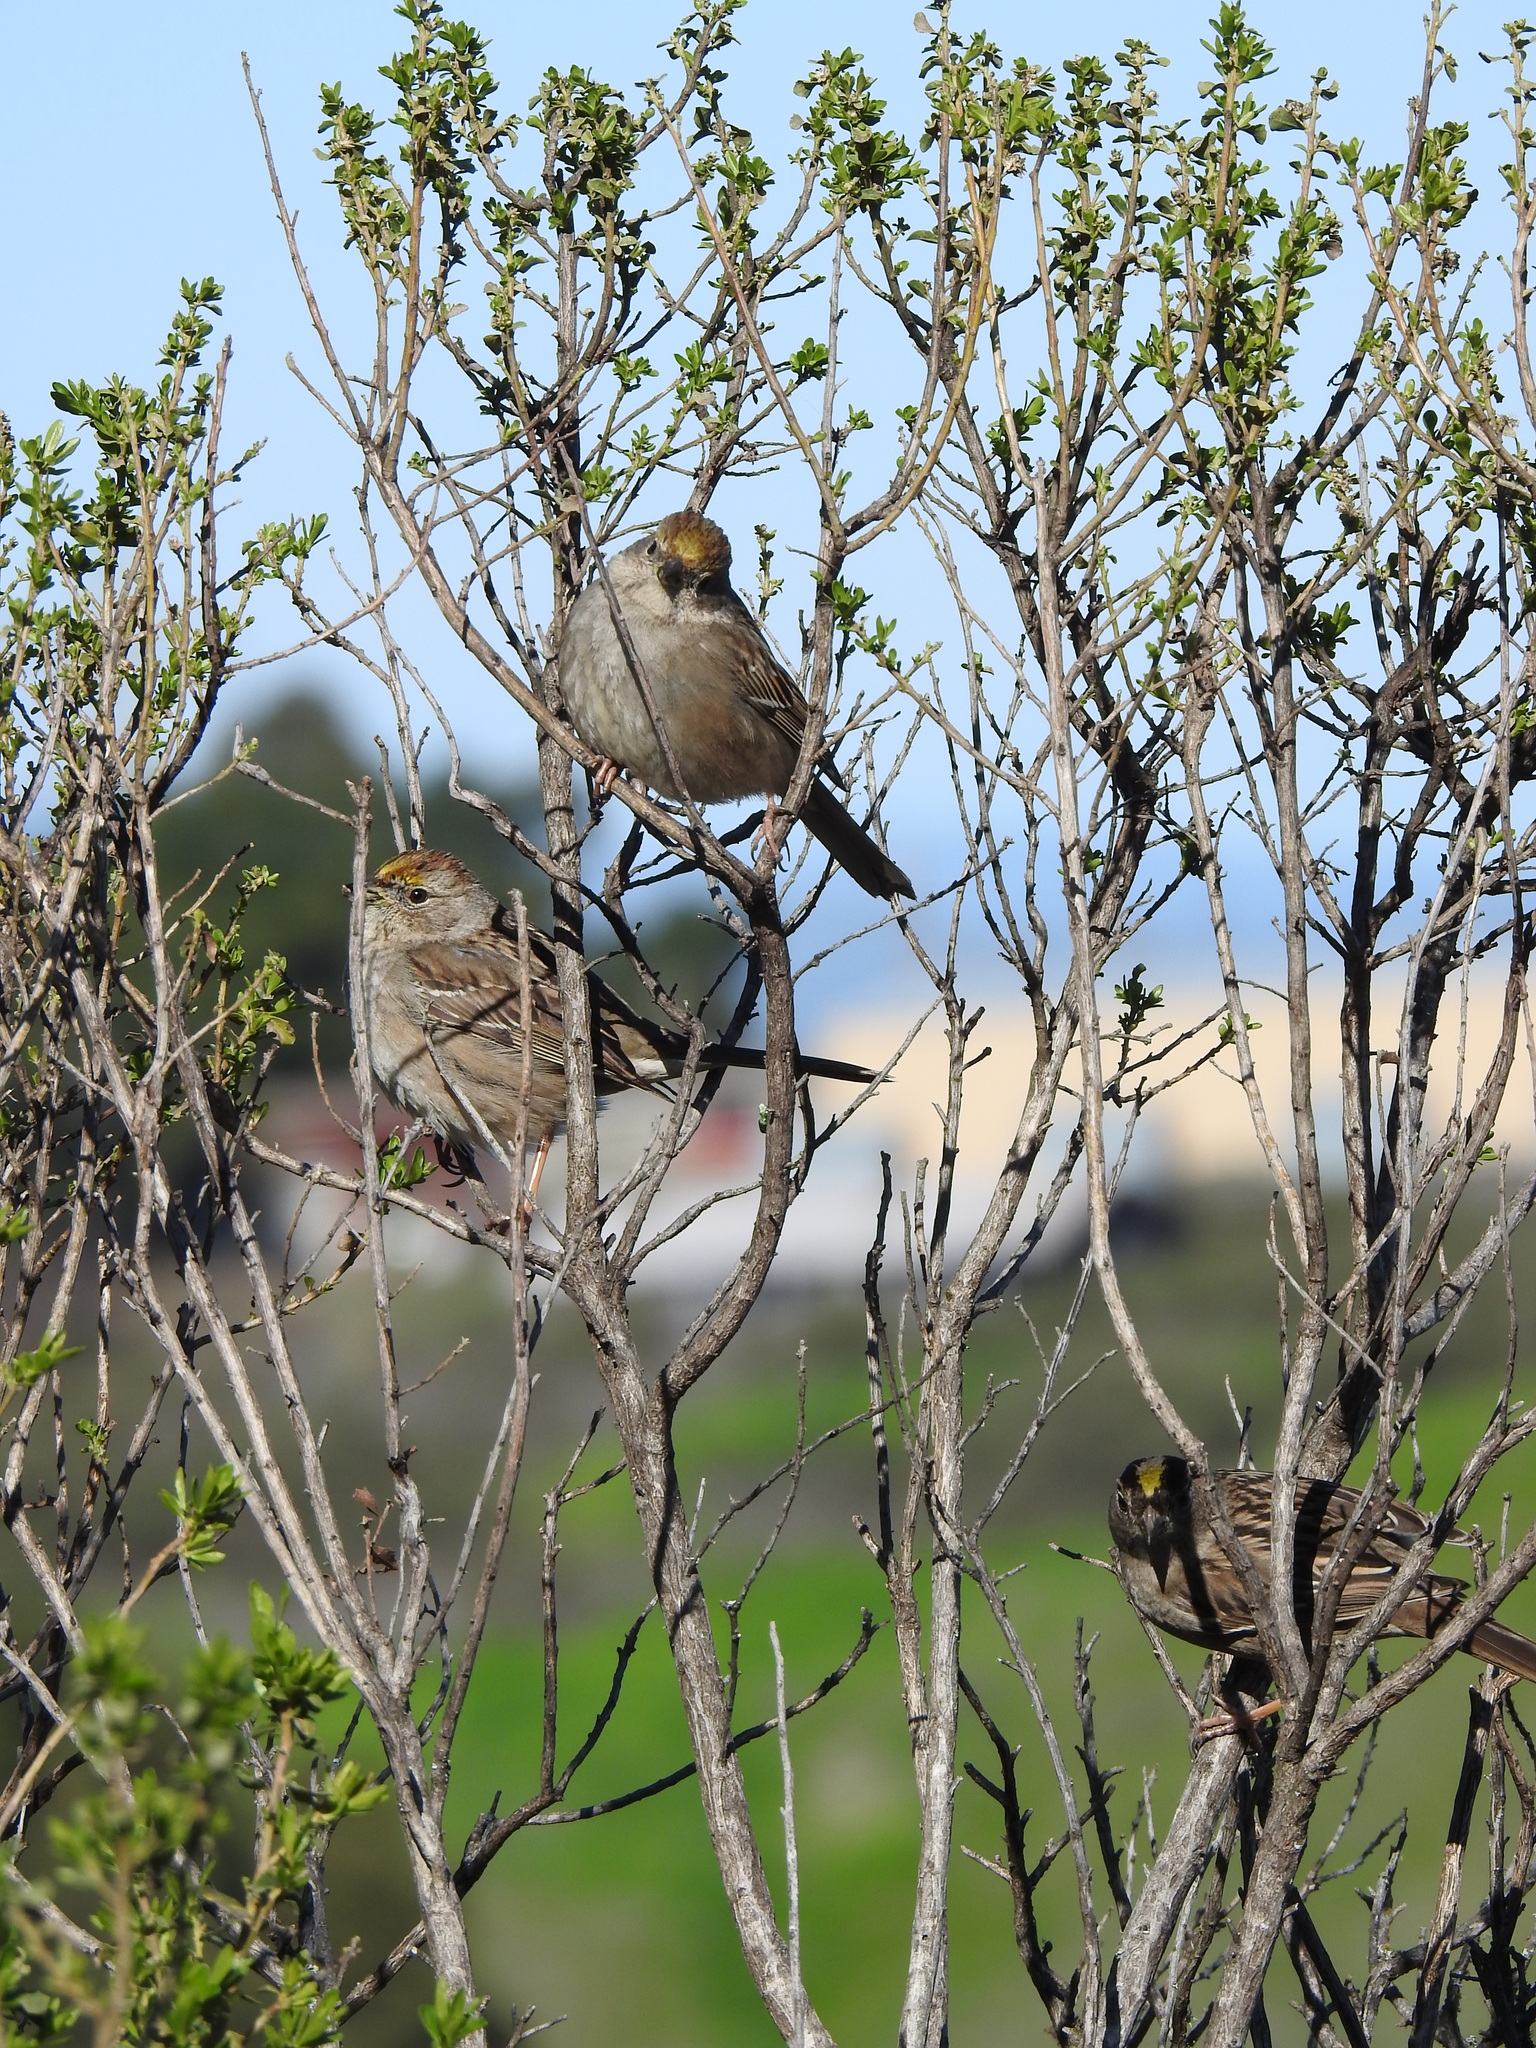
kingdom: Animalia
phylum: Chordata
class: Aves
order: Passeriformes
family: Passerellidae
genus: Zonotrichia
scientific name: Zonotrichia atricapilla
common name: Golden-crowned sparrow
